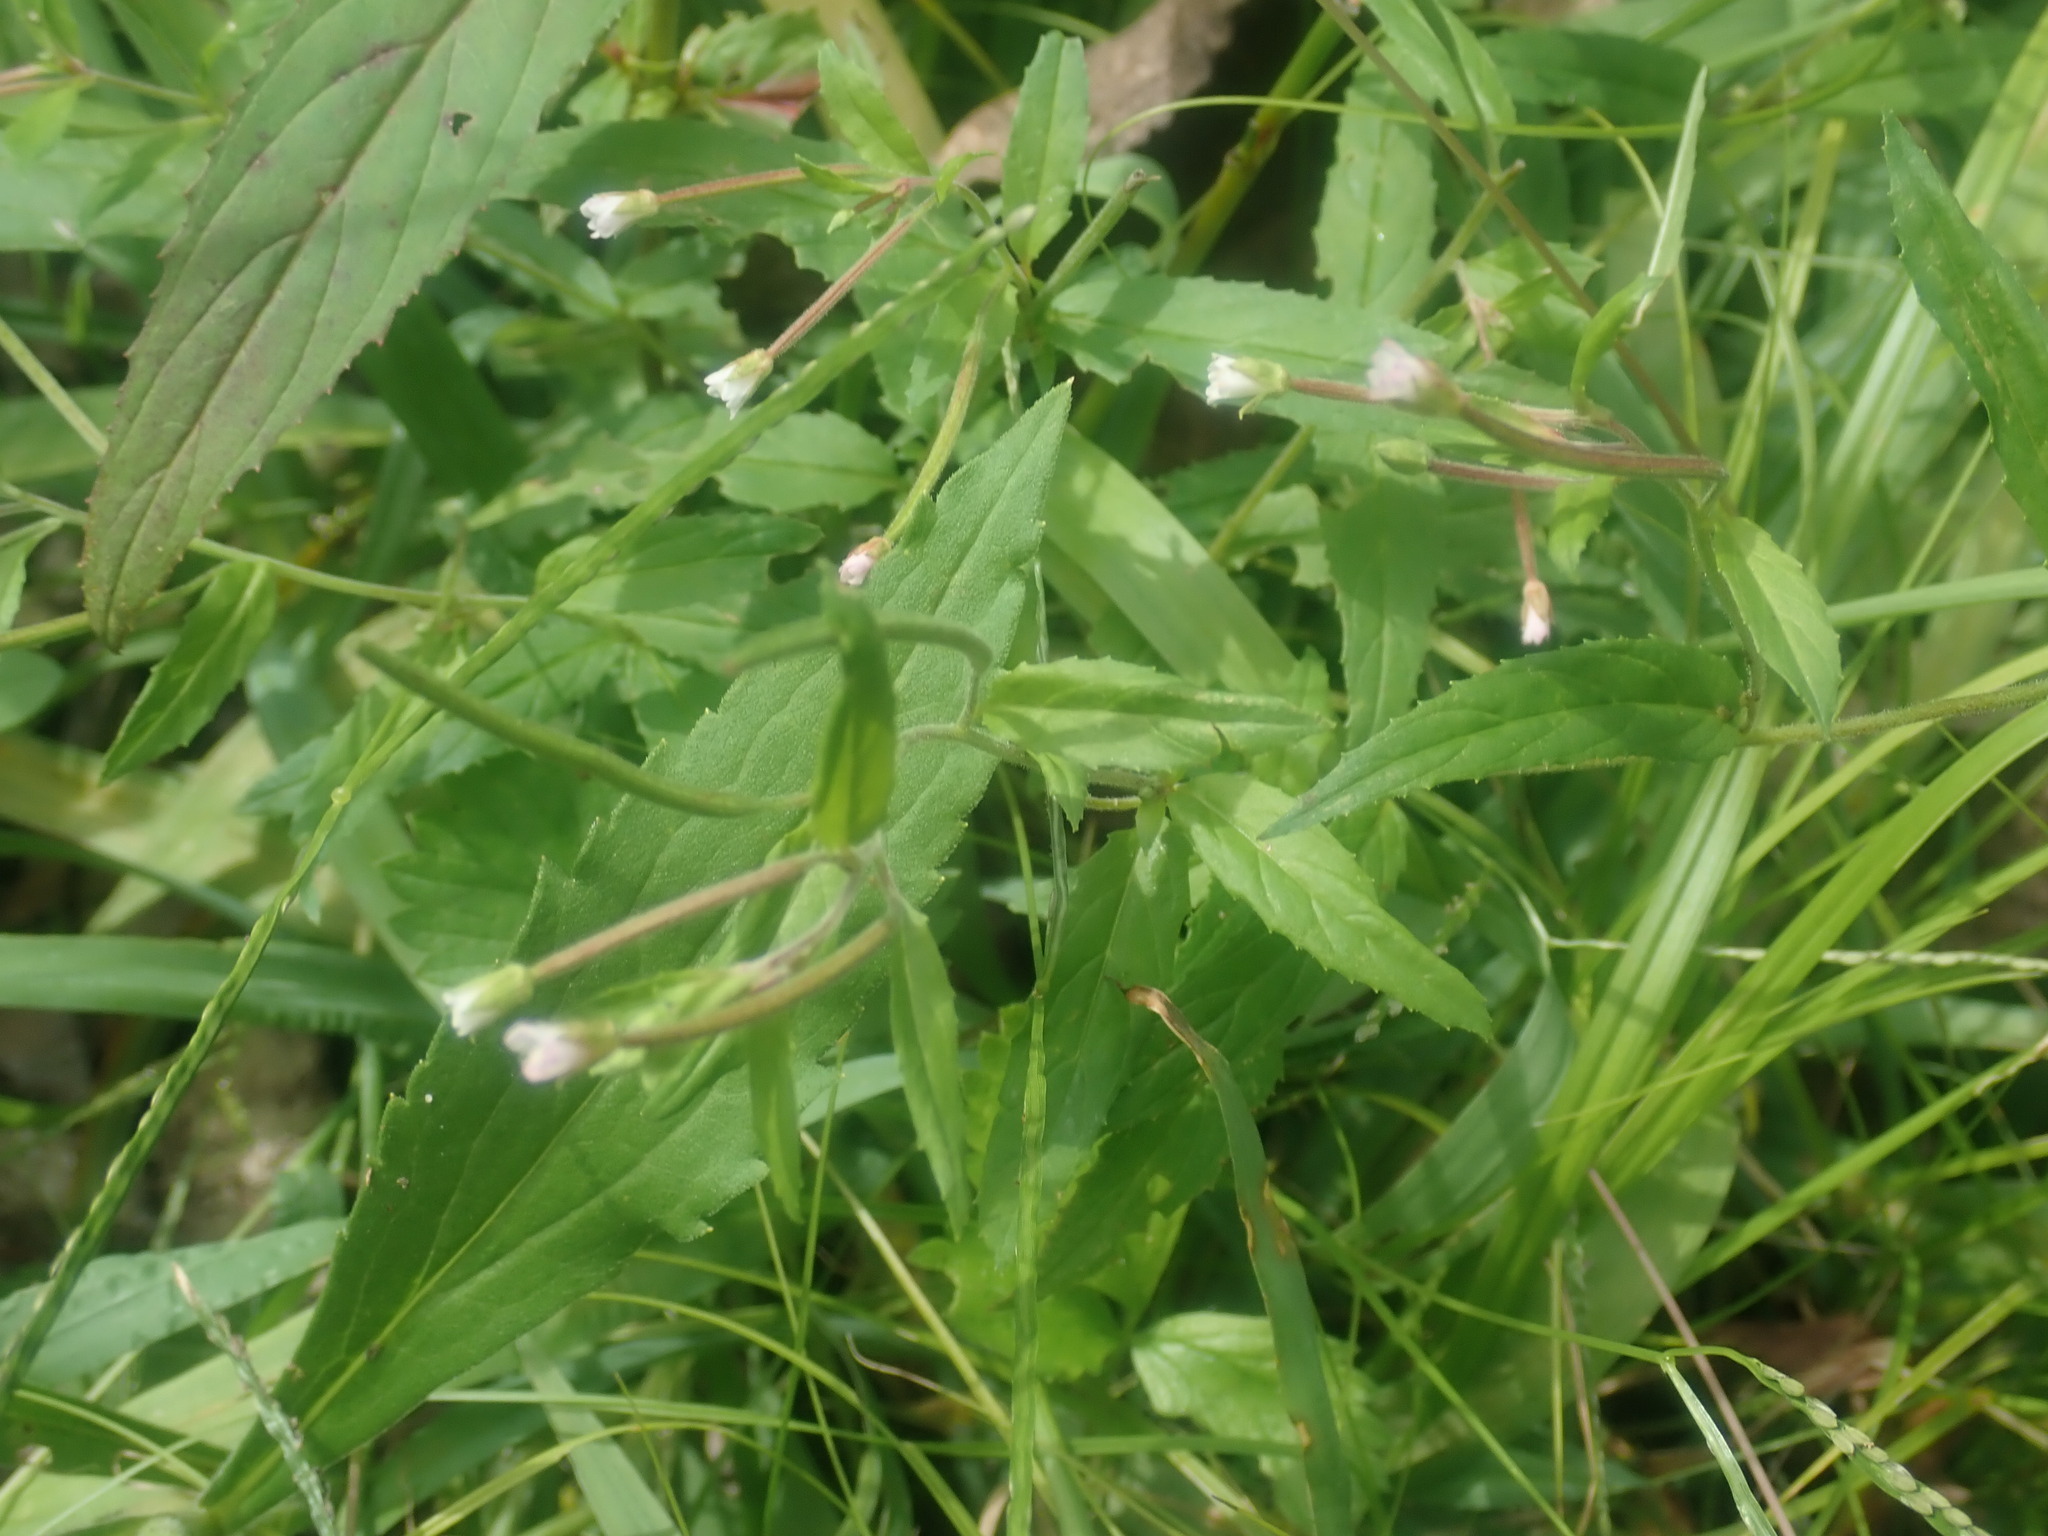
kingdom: Plantae
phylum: Tracheophyta
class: Magnoliopsida
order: Myrtales
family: Onagraceae
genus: Epilobium
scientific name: Epilobium
